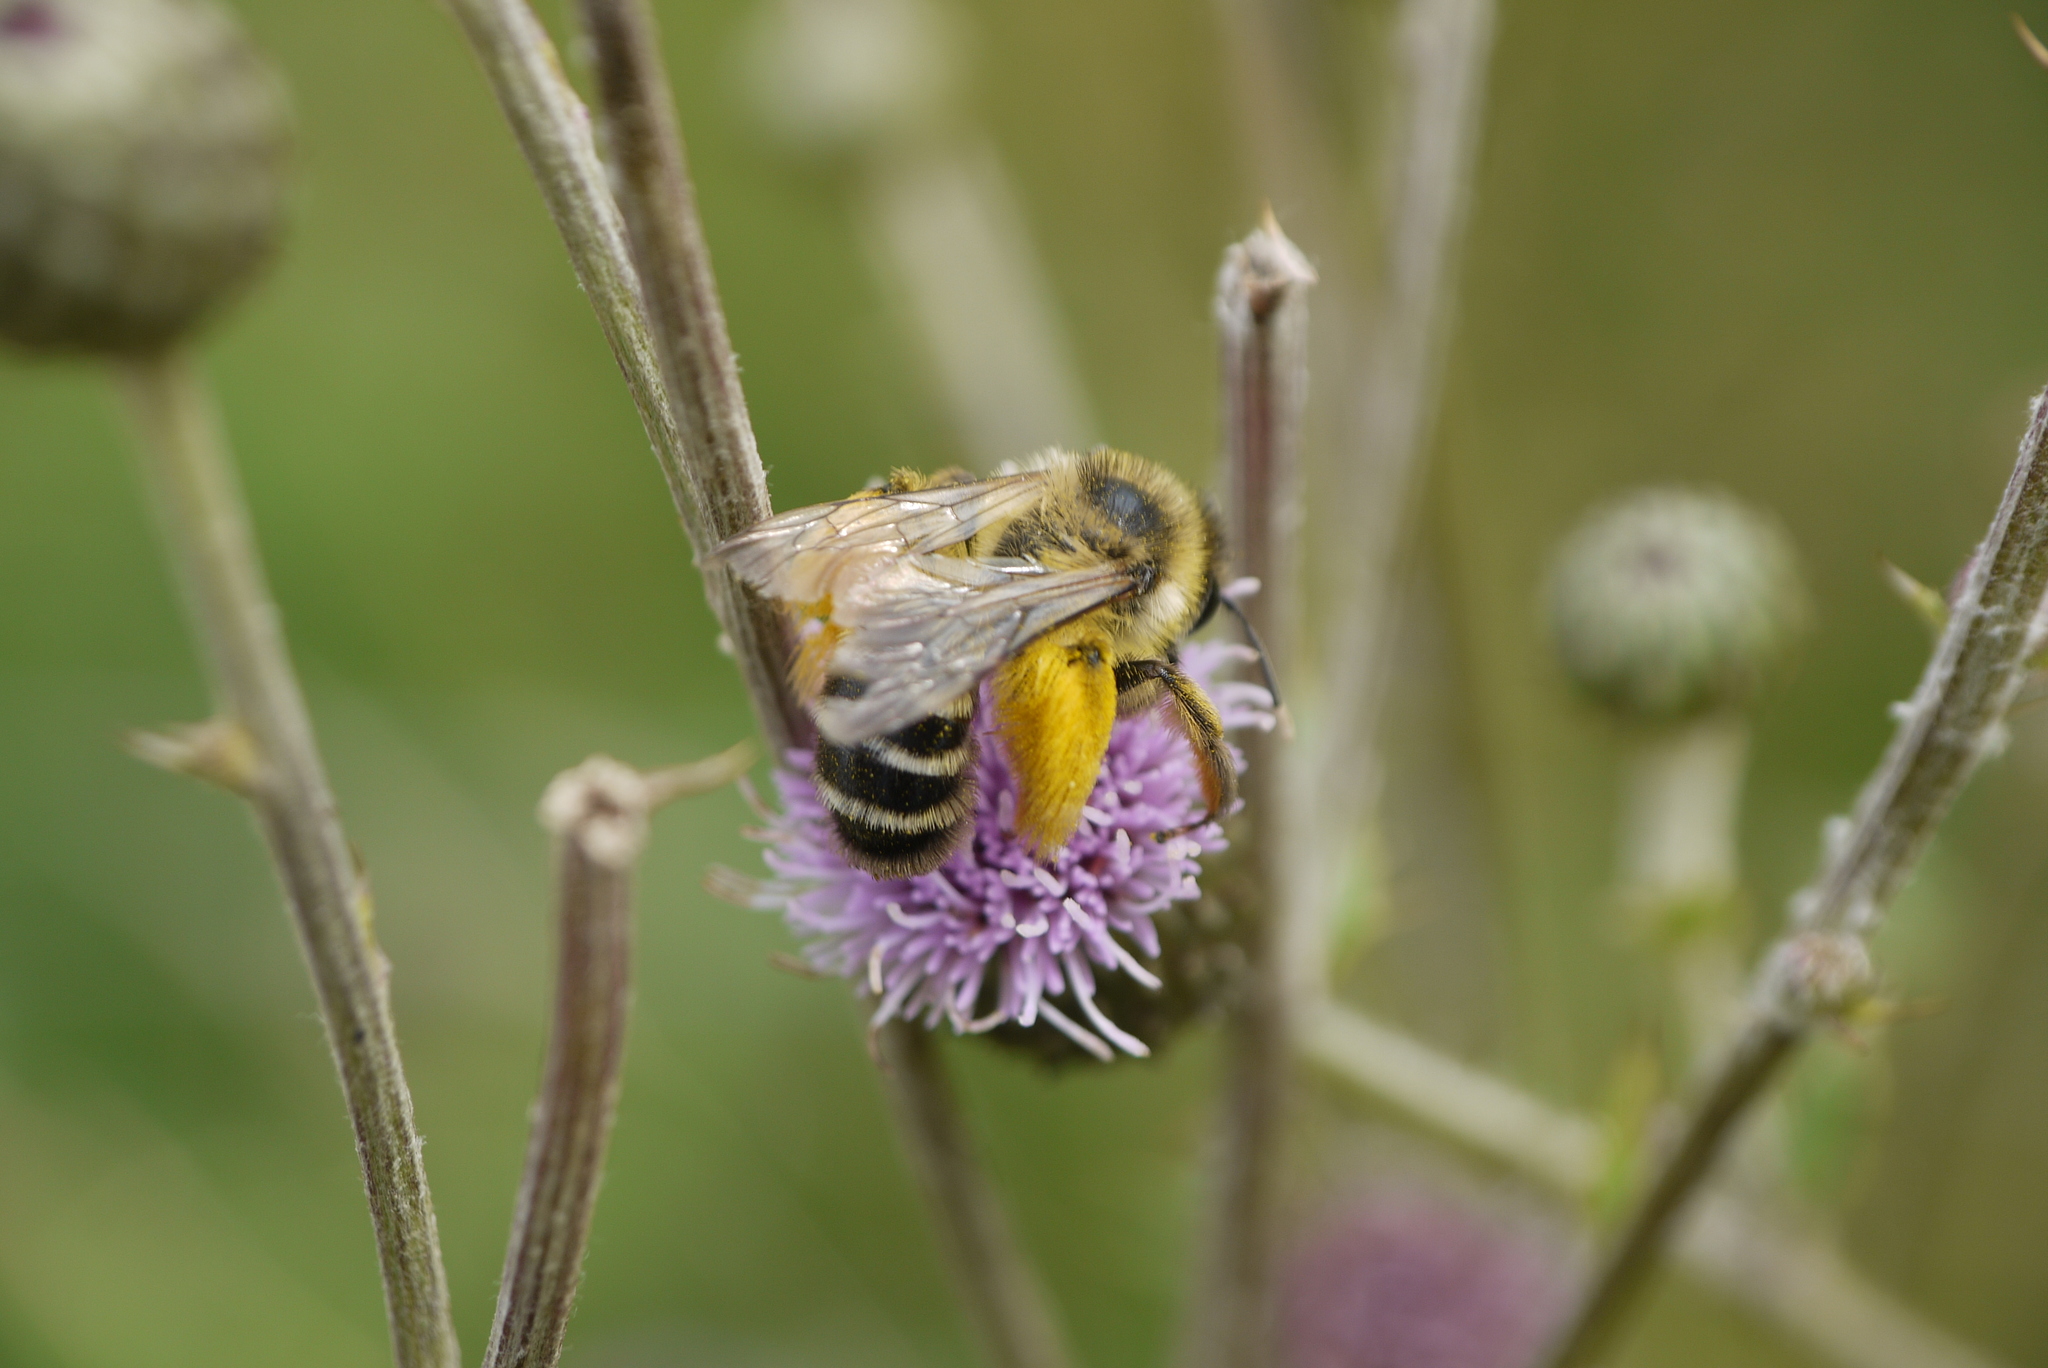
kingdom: Animalia
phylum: Arthropoda
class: Insecta
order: Hymenoptera
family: Melittidae
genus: Dasypoda
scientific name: Dasypoda hirtipes
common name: Pantaloon bee
